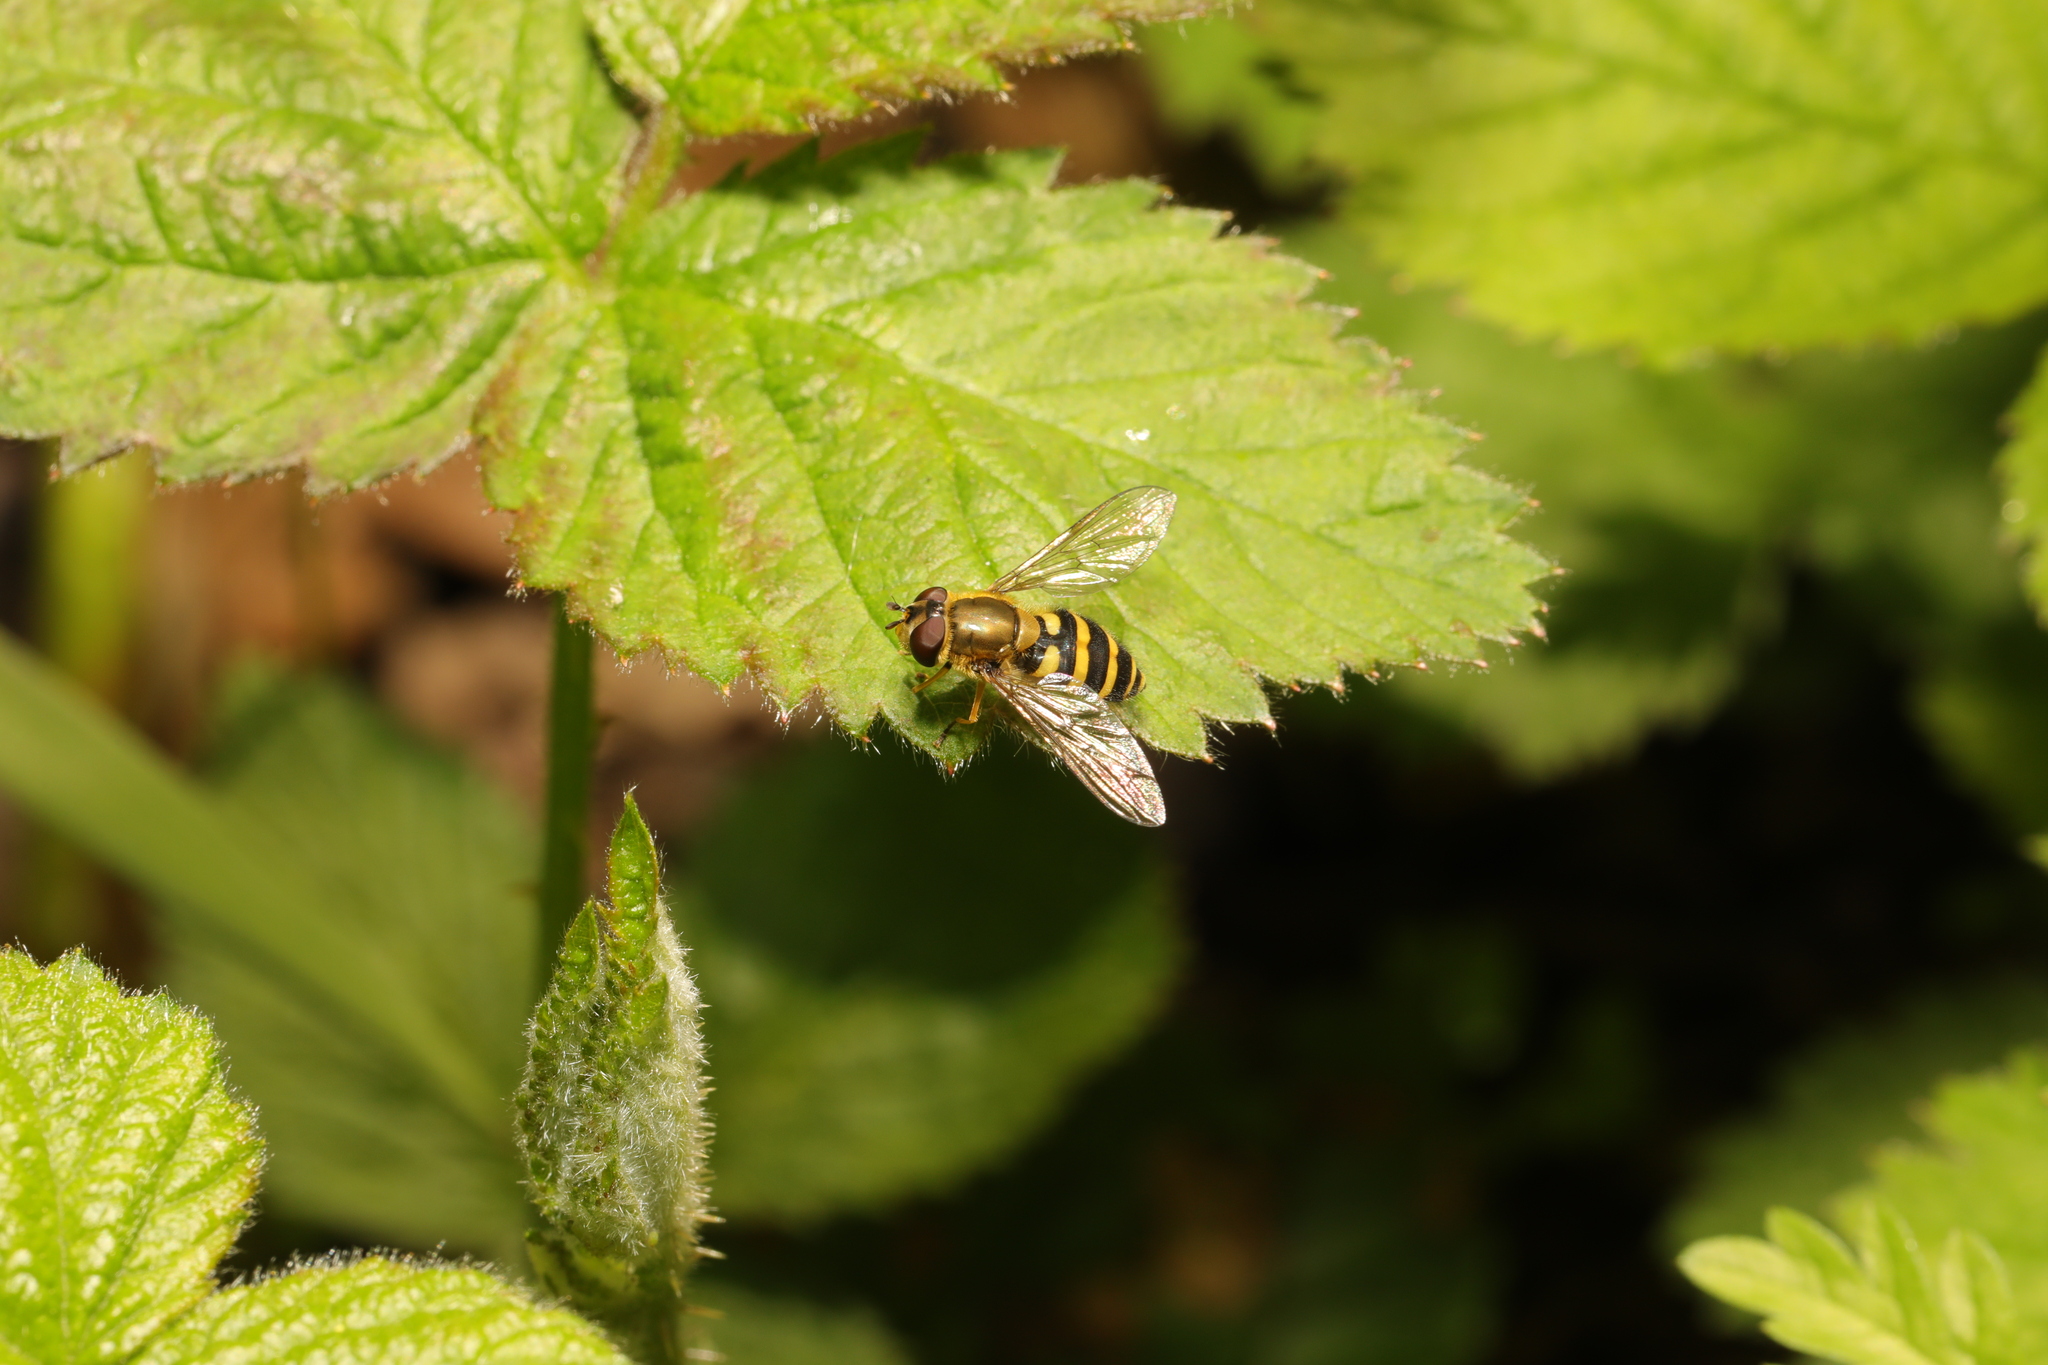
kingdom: Animalia
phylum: Arthropoda
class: Insecta
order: Diptera
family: Syrphidae
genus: Syrphus
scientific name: Syrphus
